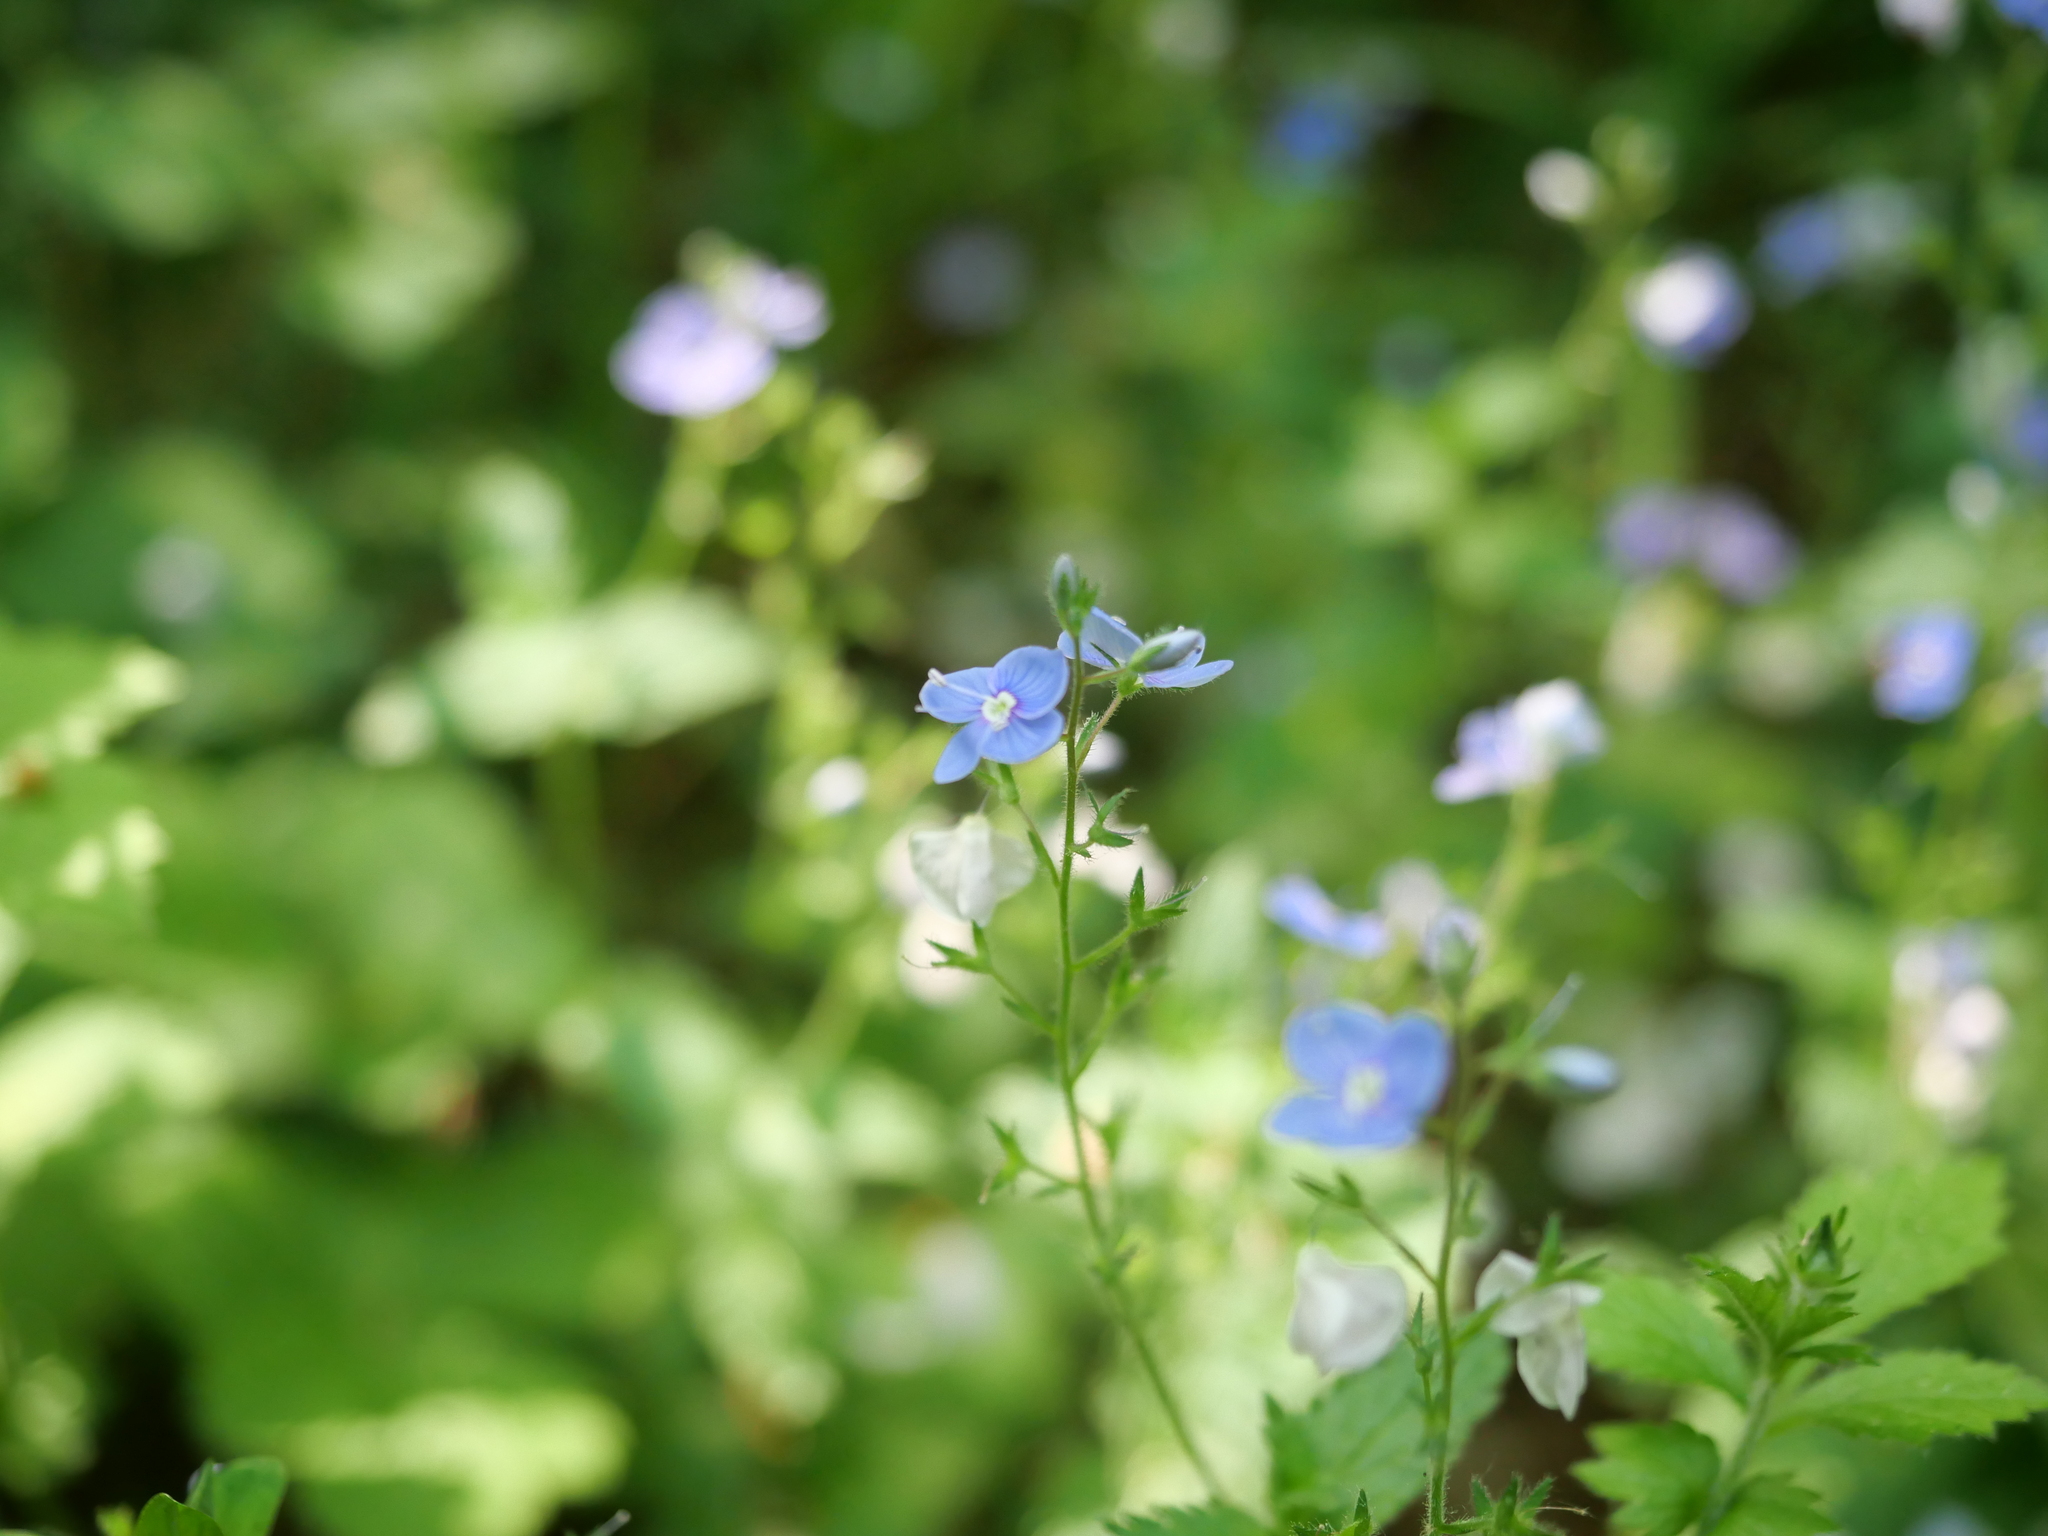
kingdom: Plantae
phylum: Tracheophyta
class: Magnoliopsida
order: Lamiales
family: Plantaginaceae
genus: Veronica
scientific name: Veronica chamaedrys
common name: Germander speedwell
